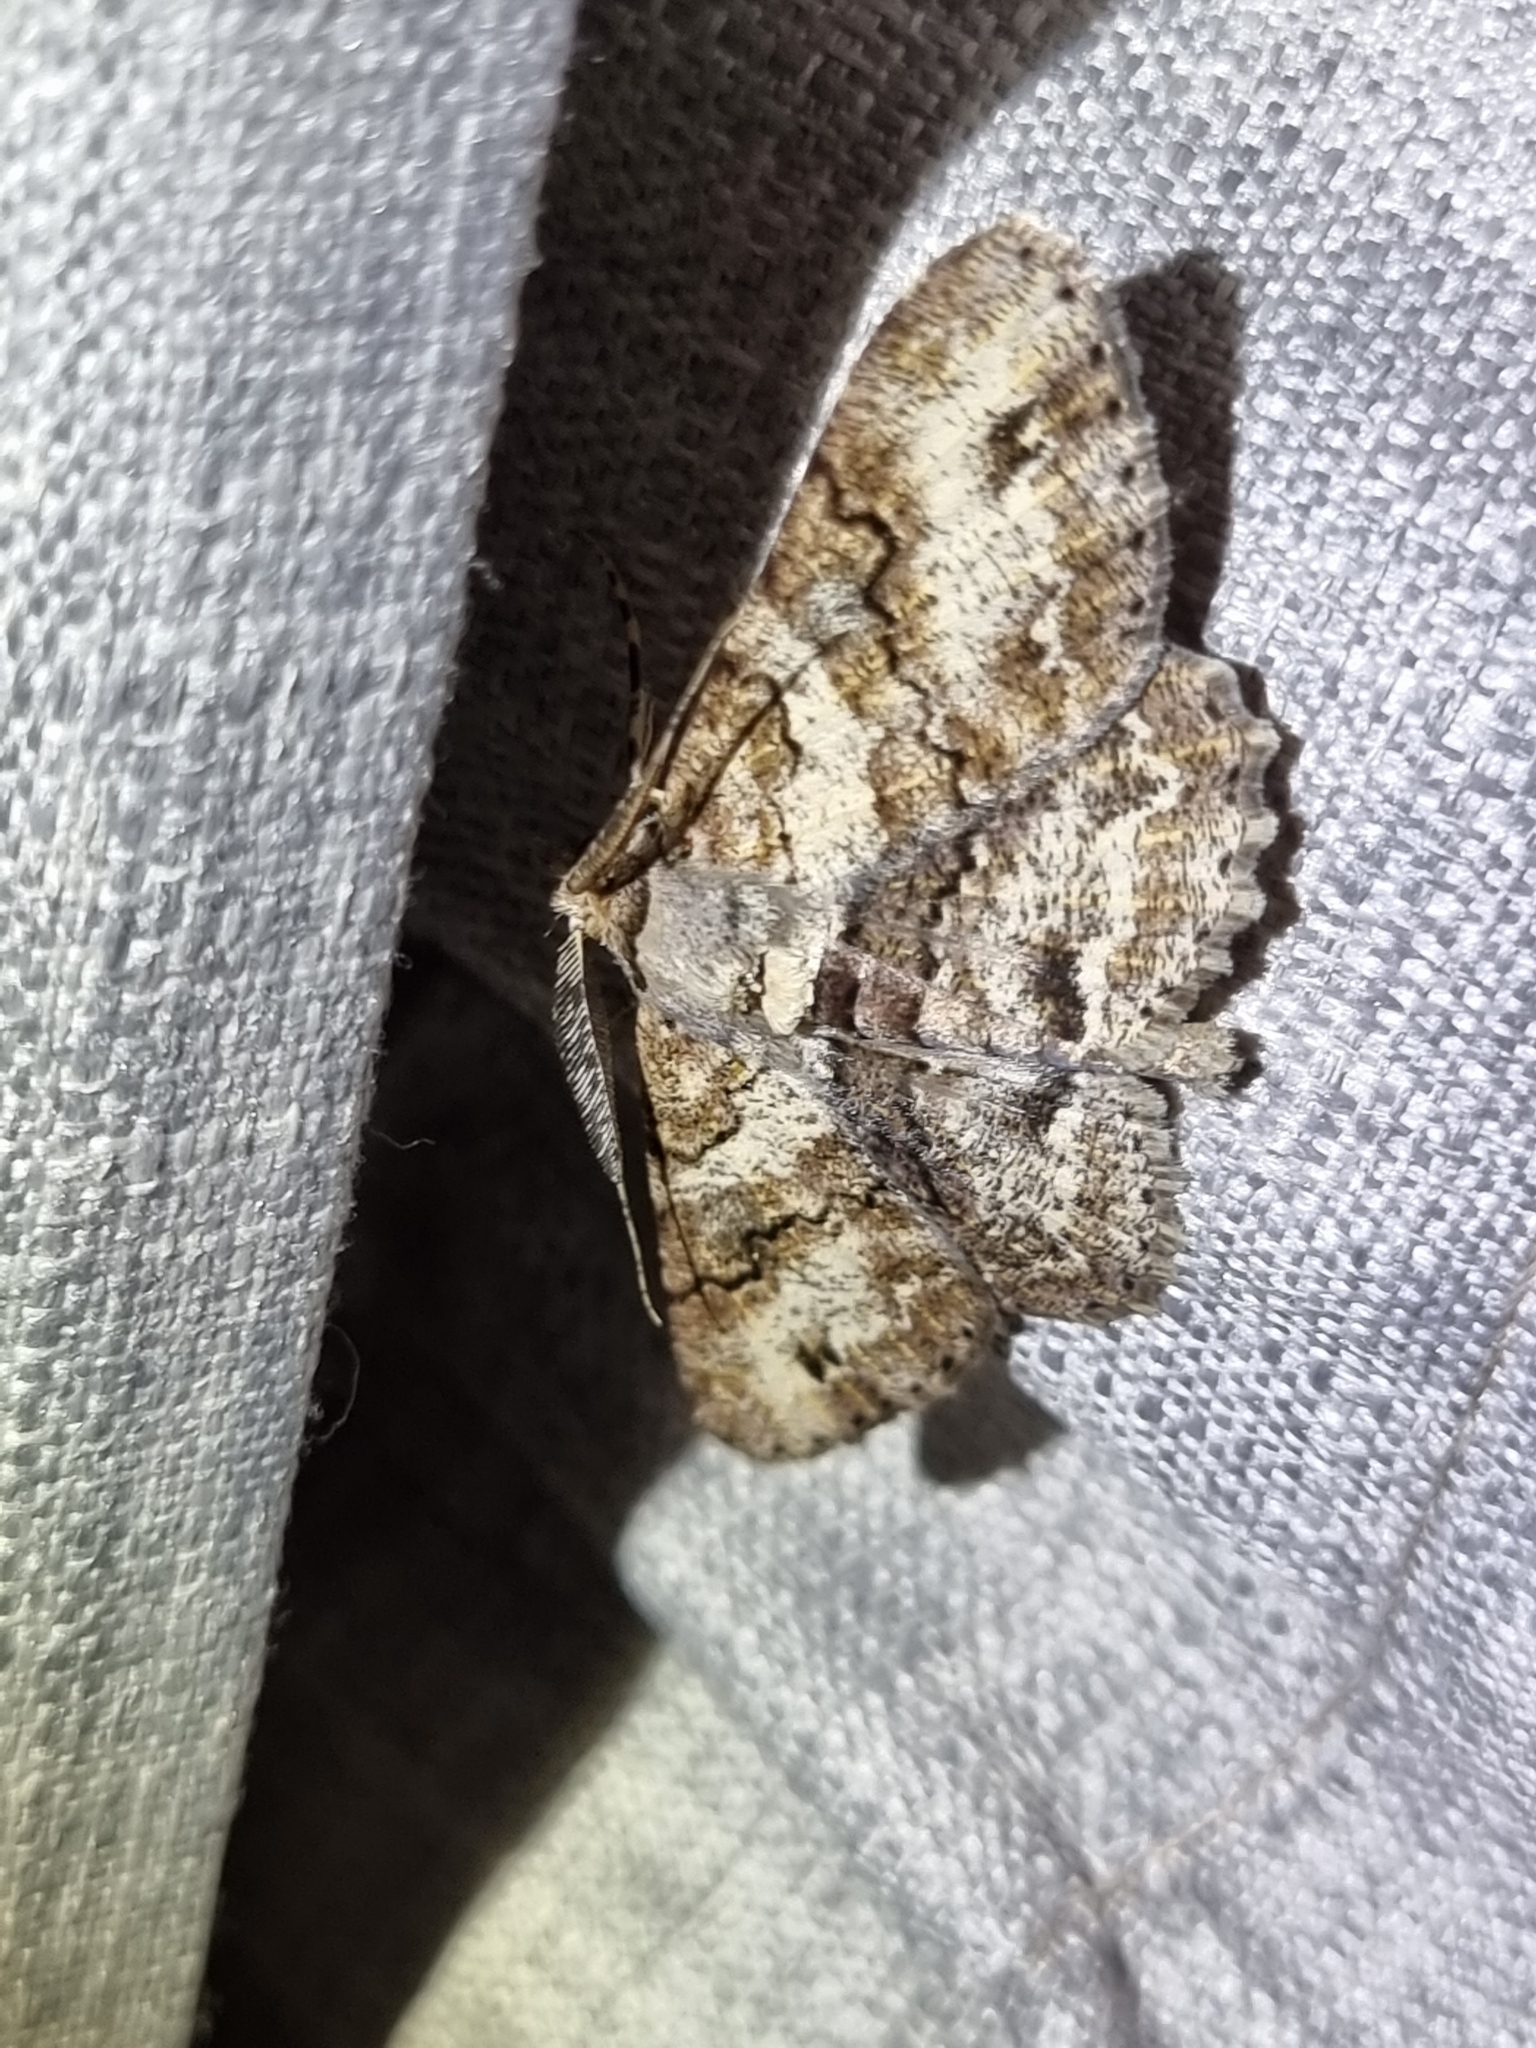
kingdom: Animalia
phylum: Arthropoda
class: Insecta
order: Lepidoptera
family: Geometridae
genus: Cleora
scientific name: Cleora repetita
